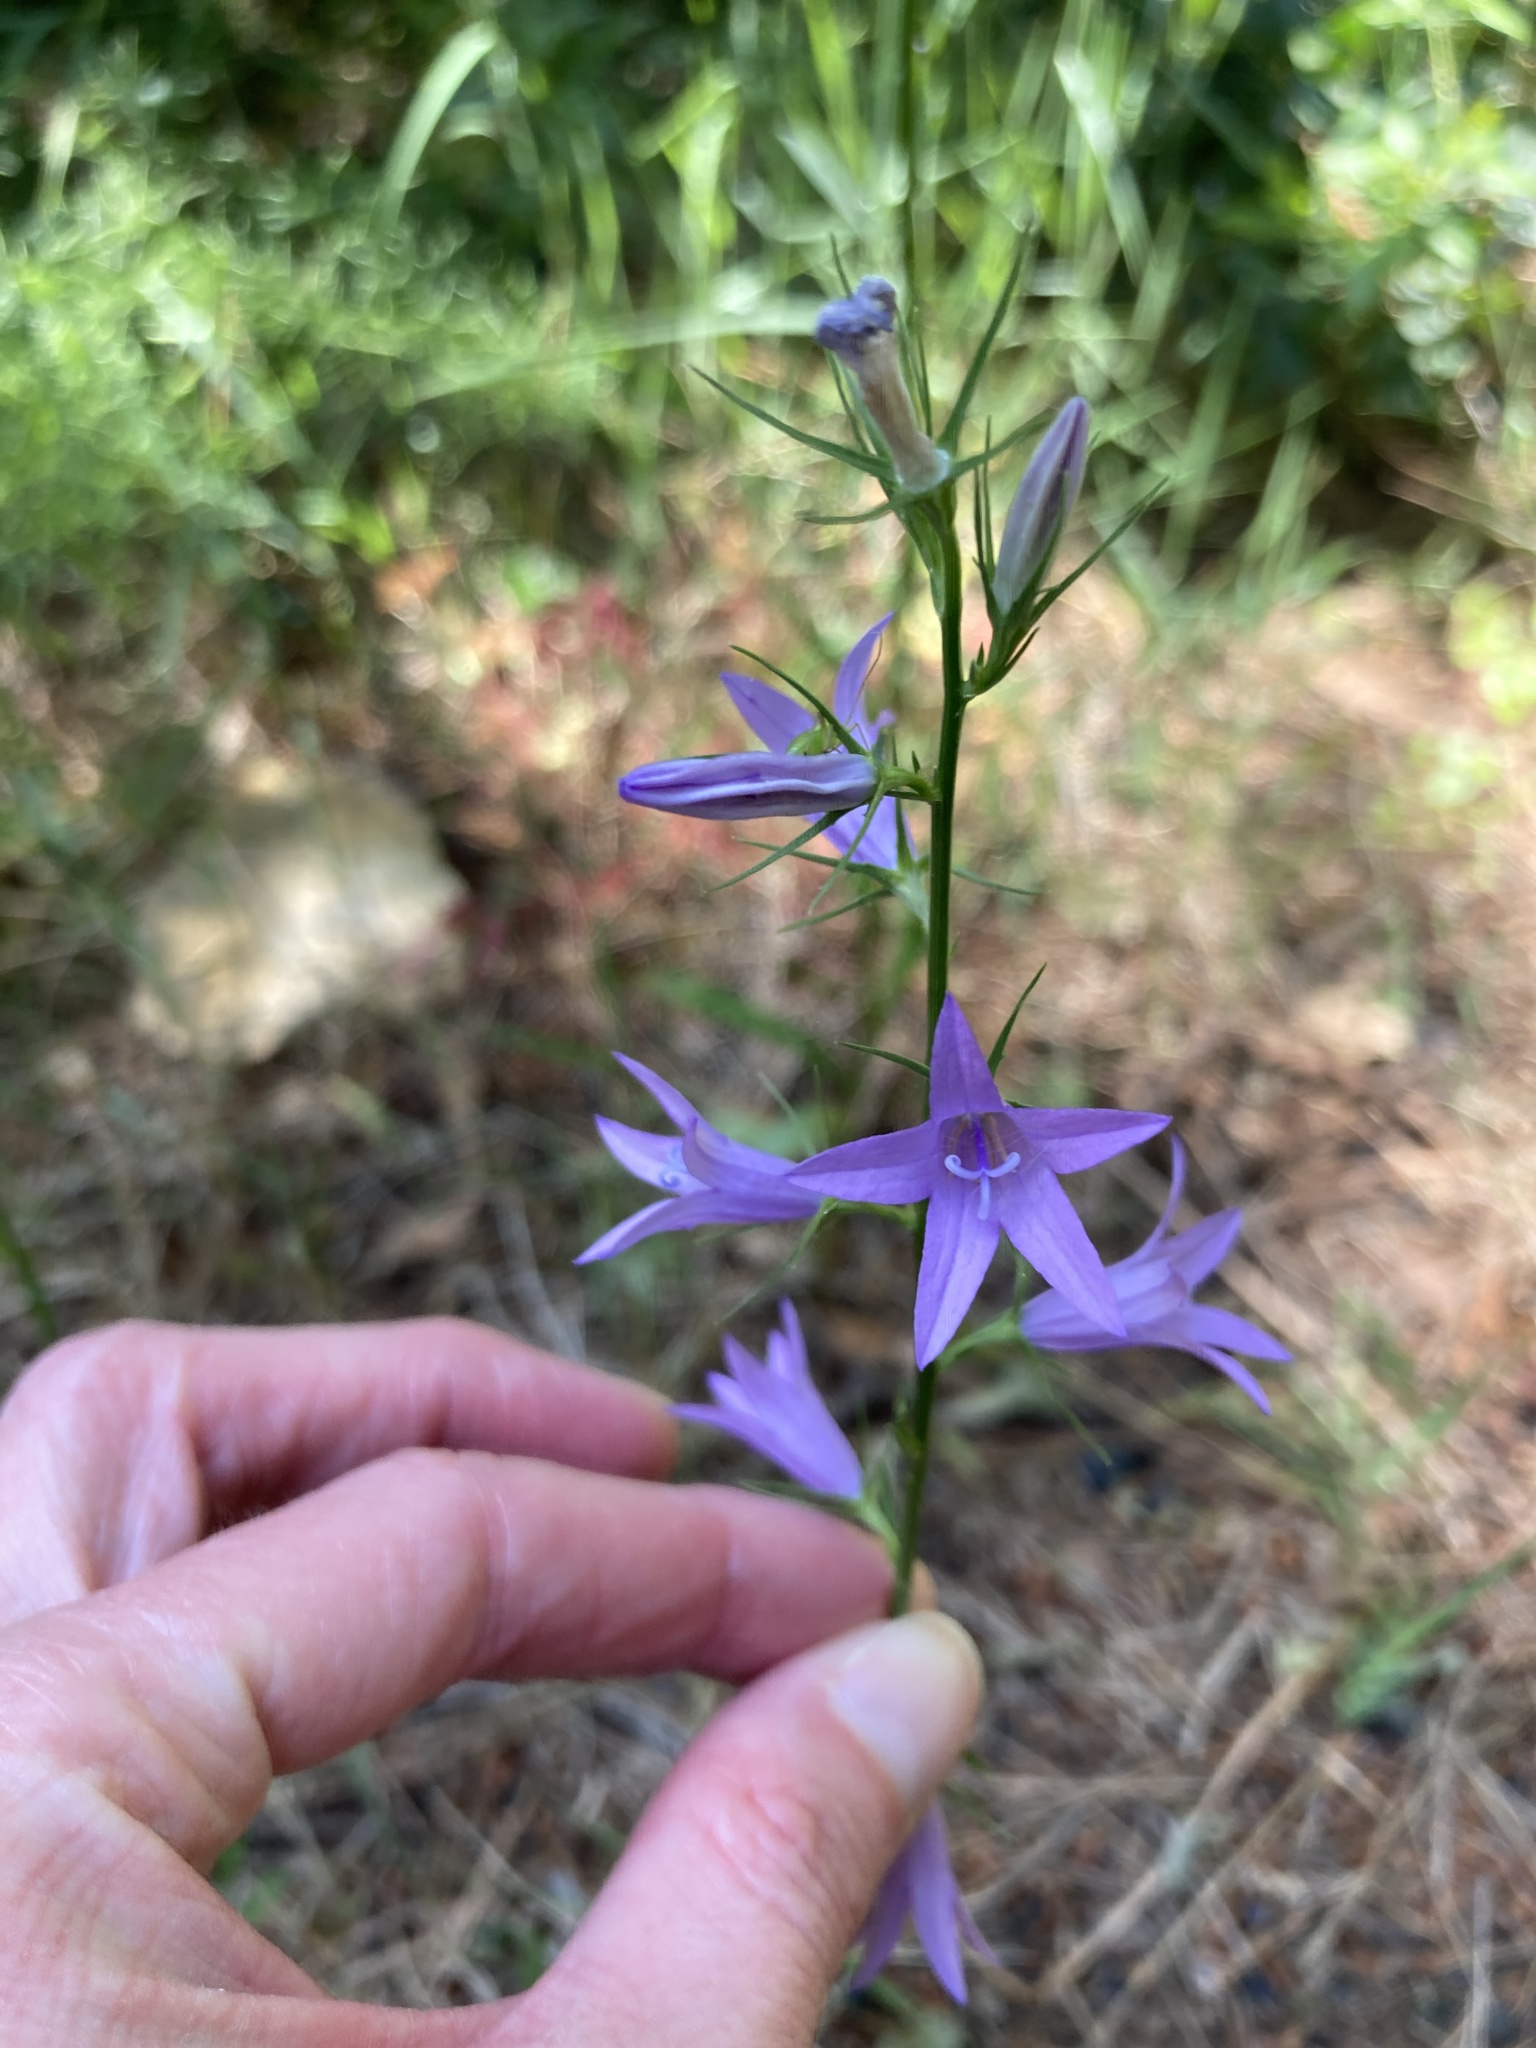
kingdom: Plantae
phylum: Tracheophyta
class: Magnoliopsida
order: Asterales
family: Campanulaceae
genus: Campanula
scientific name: Campanula rapunculus
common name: Rampion bellflower
